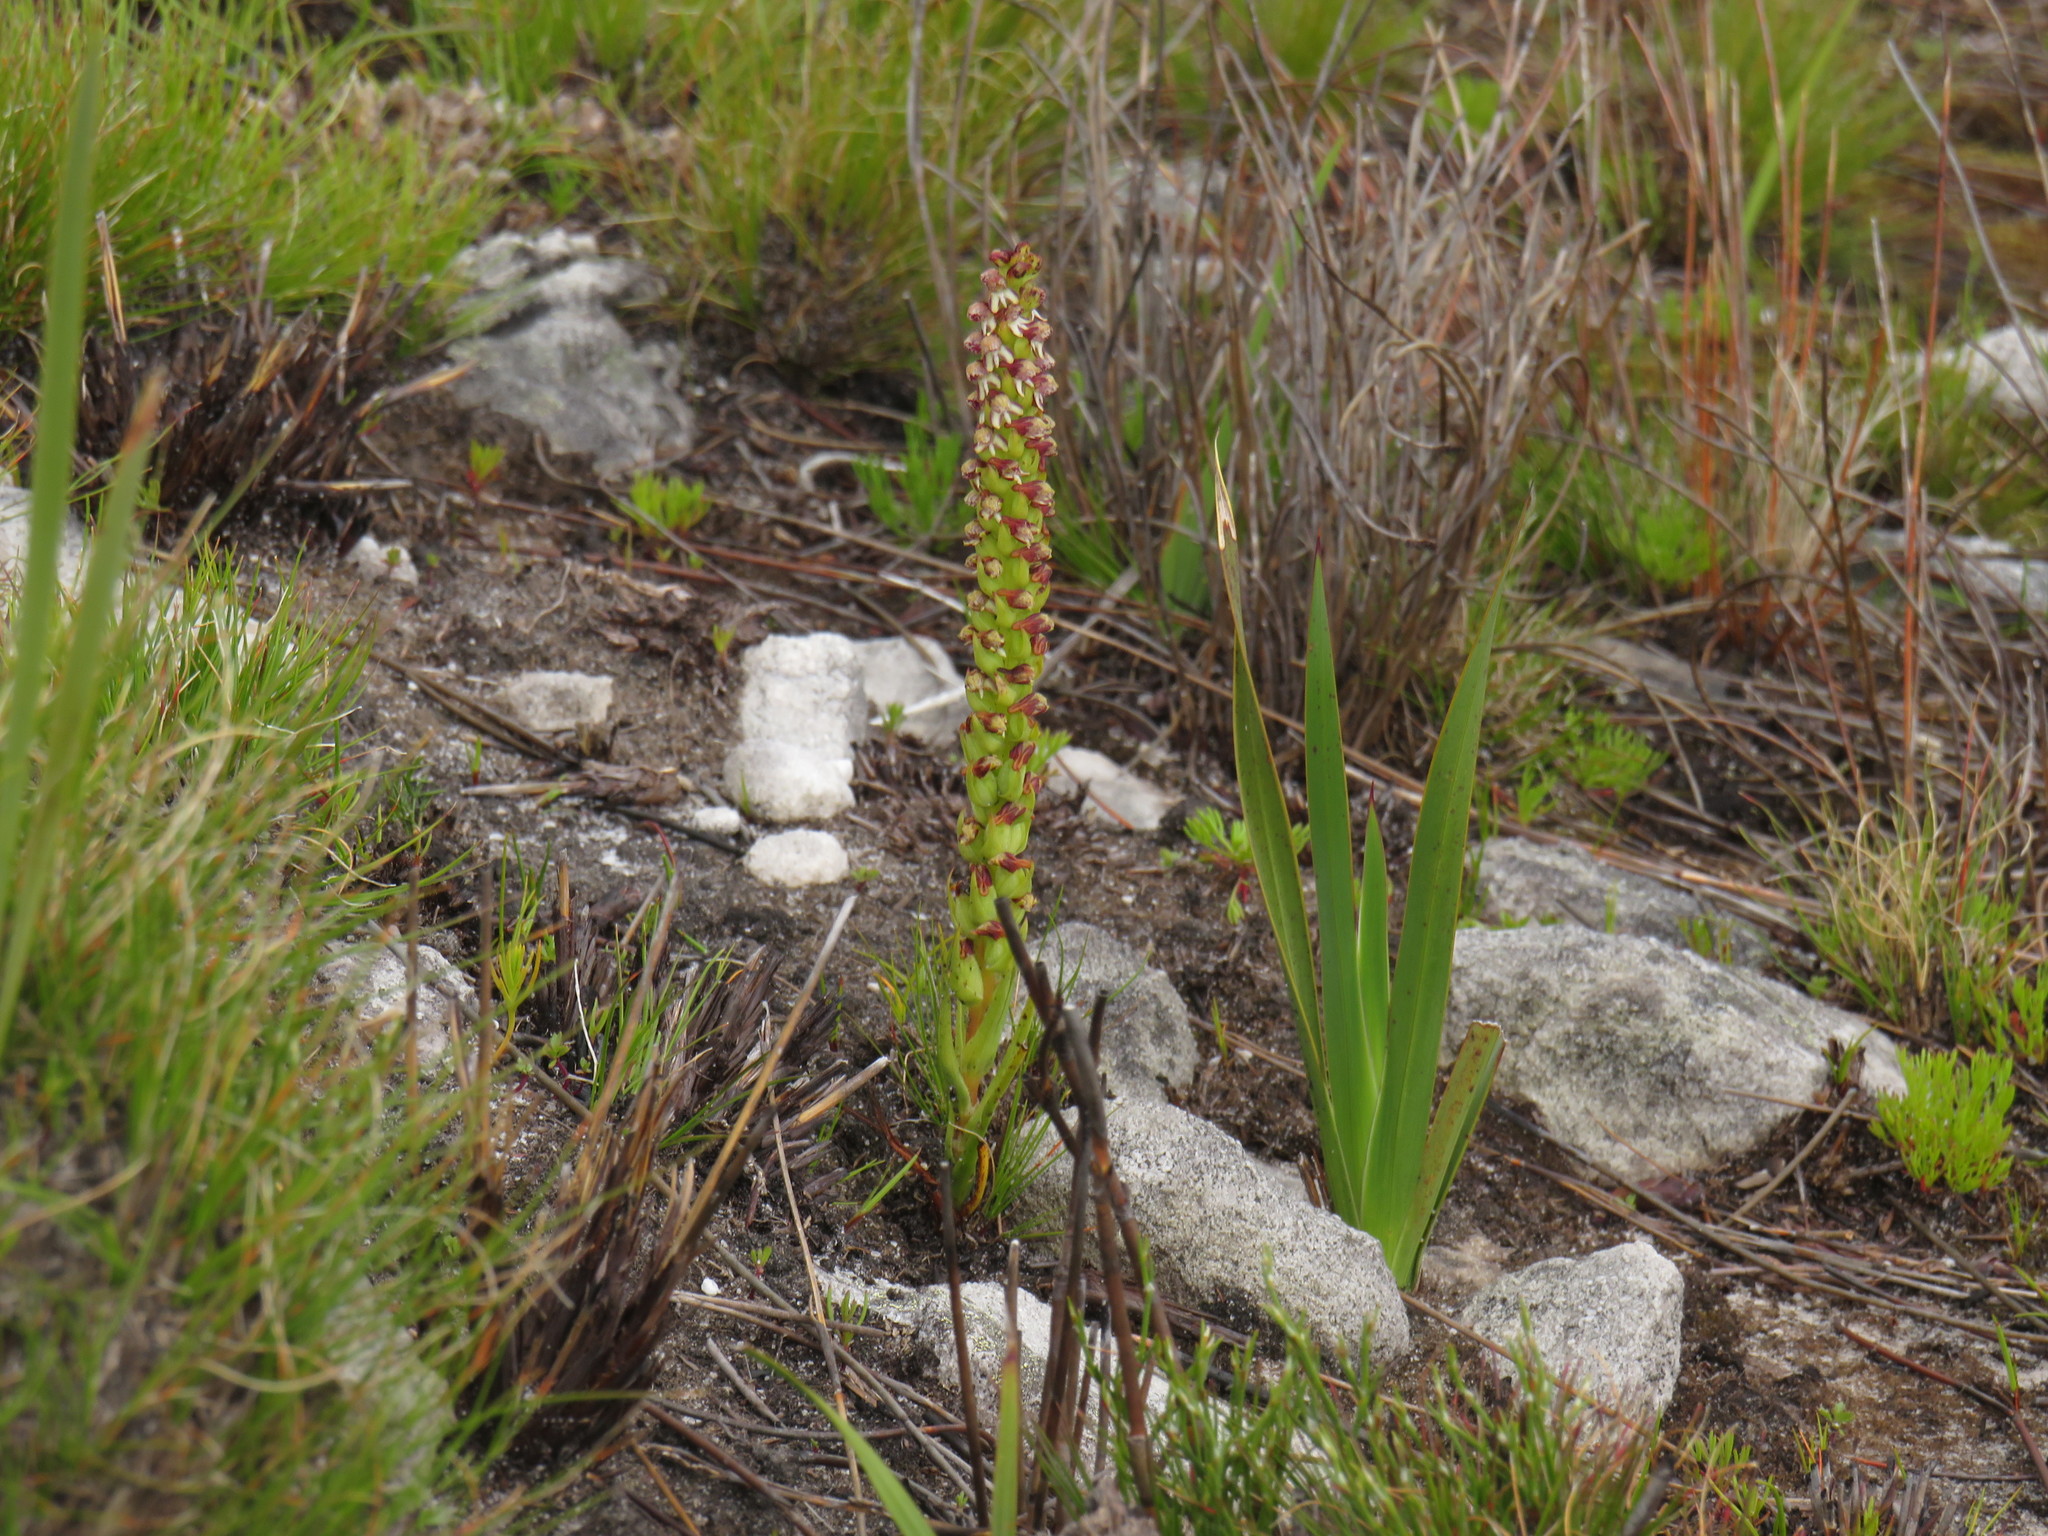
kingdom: Plantae
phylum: Tracheophyta
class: Liliopsida
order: Asparagales
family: Orchidaceae
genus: Disa
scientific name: Disa obtusa
